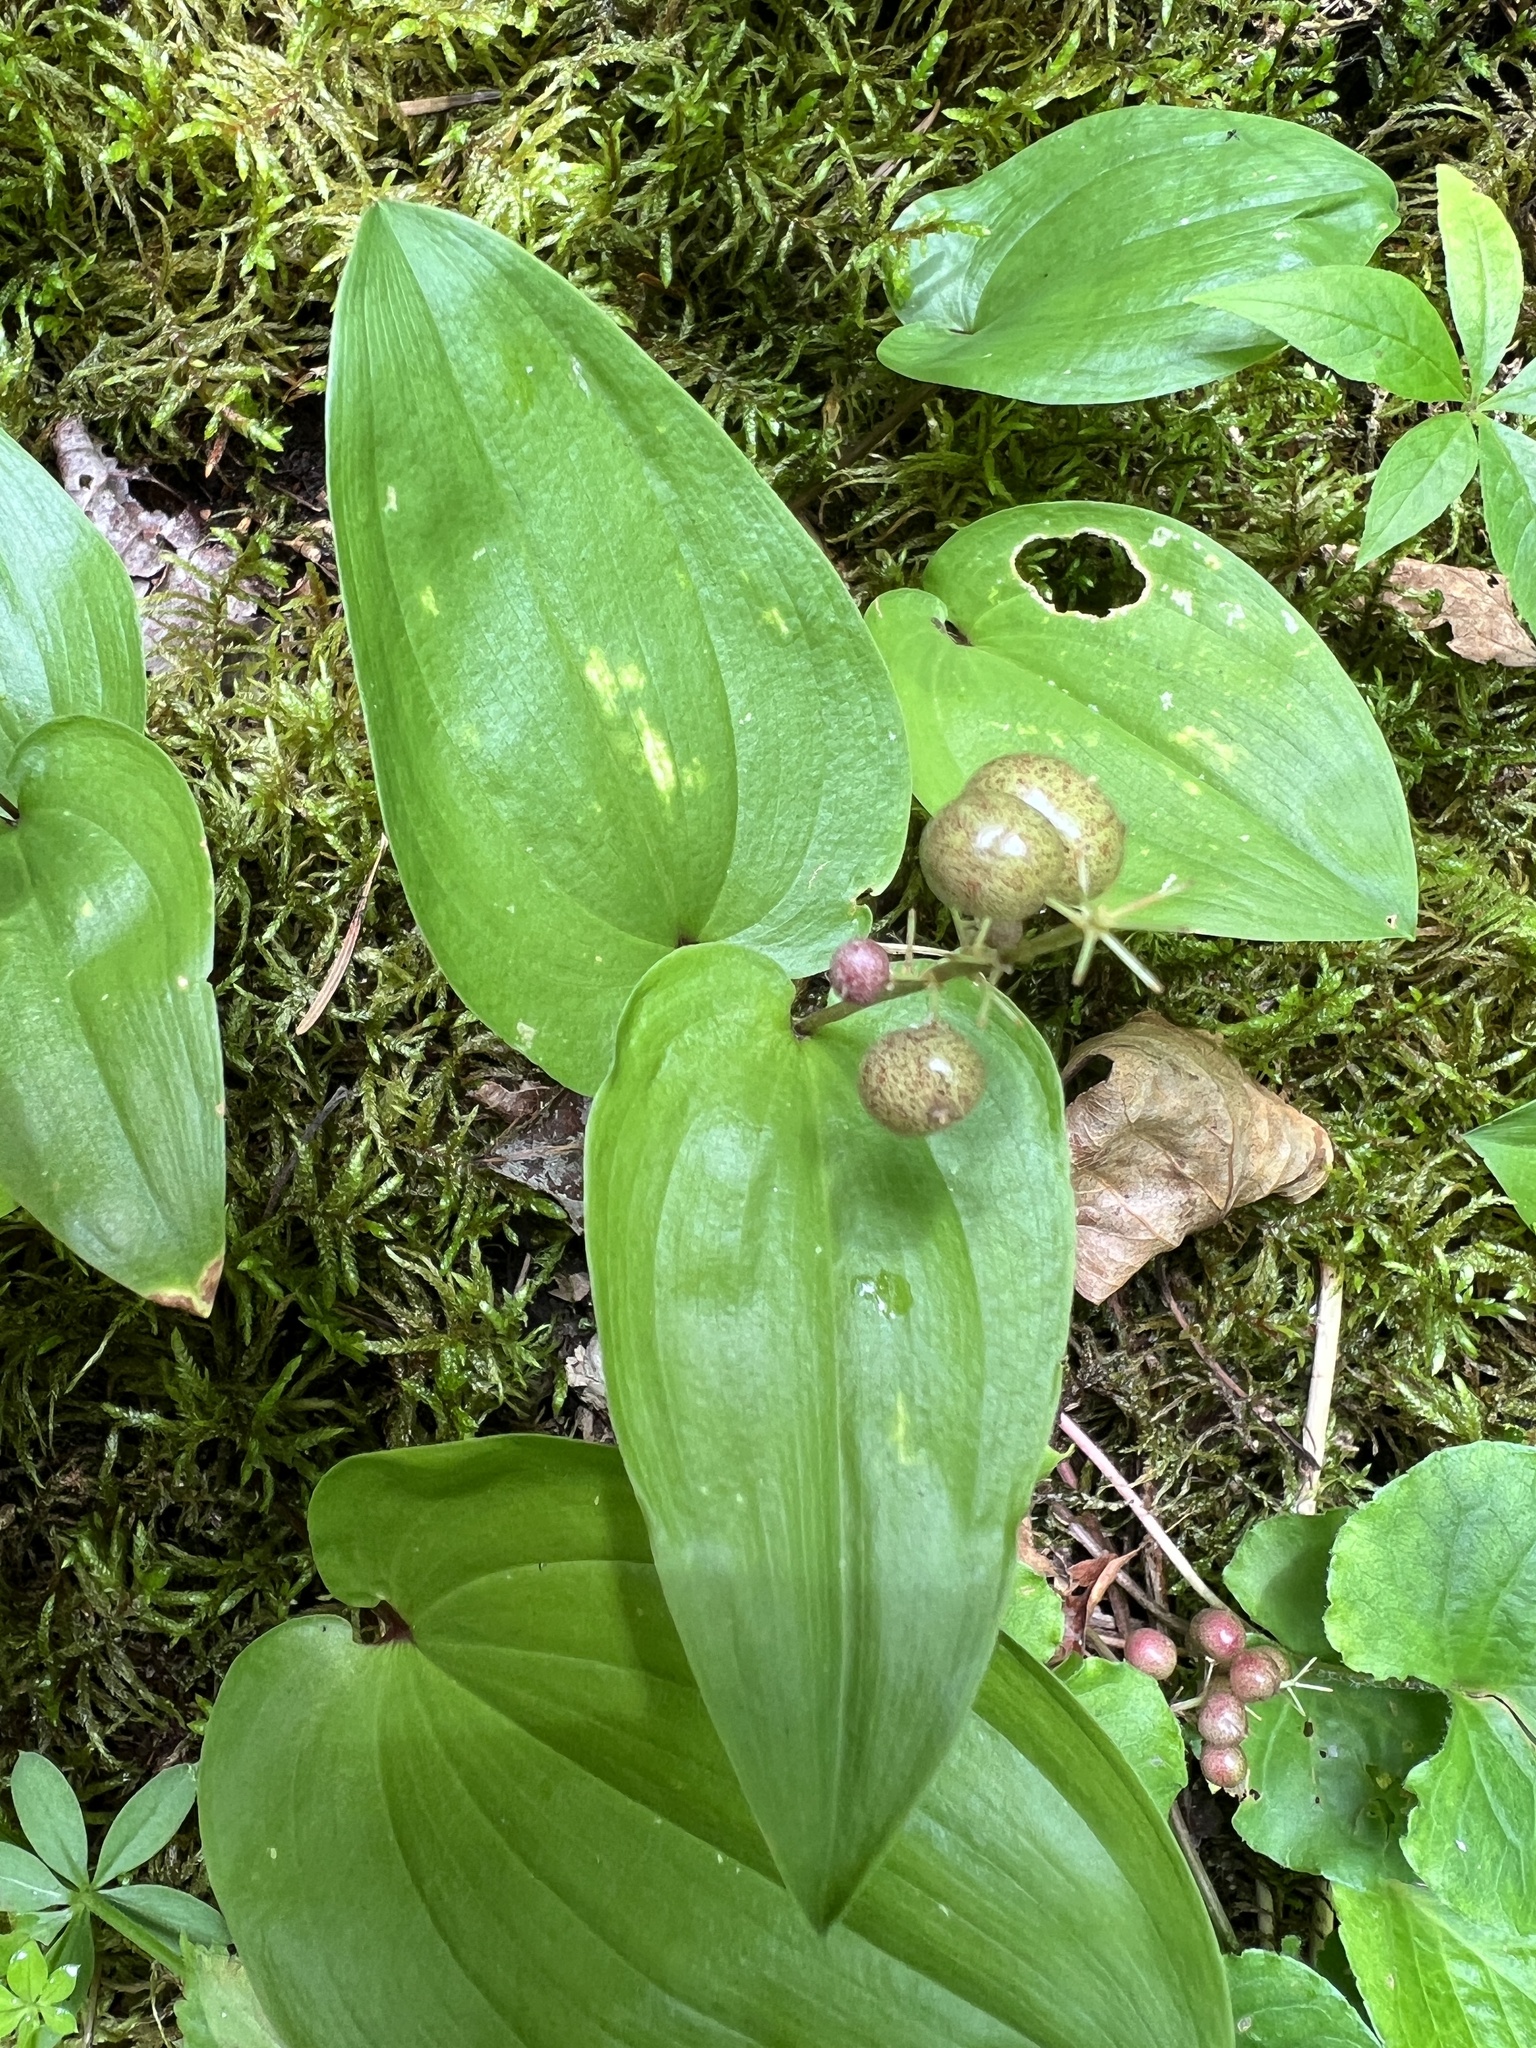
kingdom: Plantae
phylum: Tracheophyta
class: Liliopsida
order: Asparagales
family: Asparagaceae
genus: Maianthemum
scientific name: Maianthemum canadense
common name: False lily-of-the-valley
